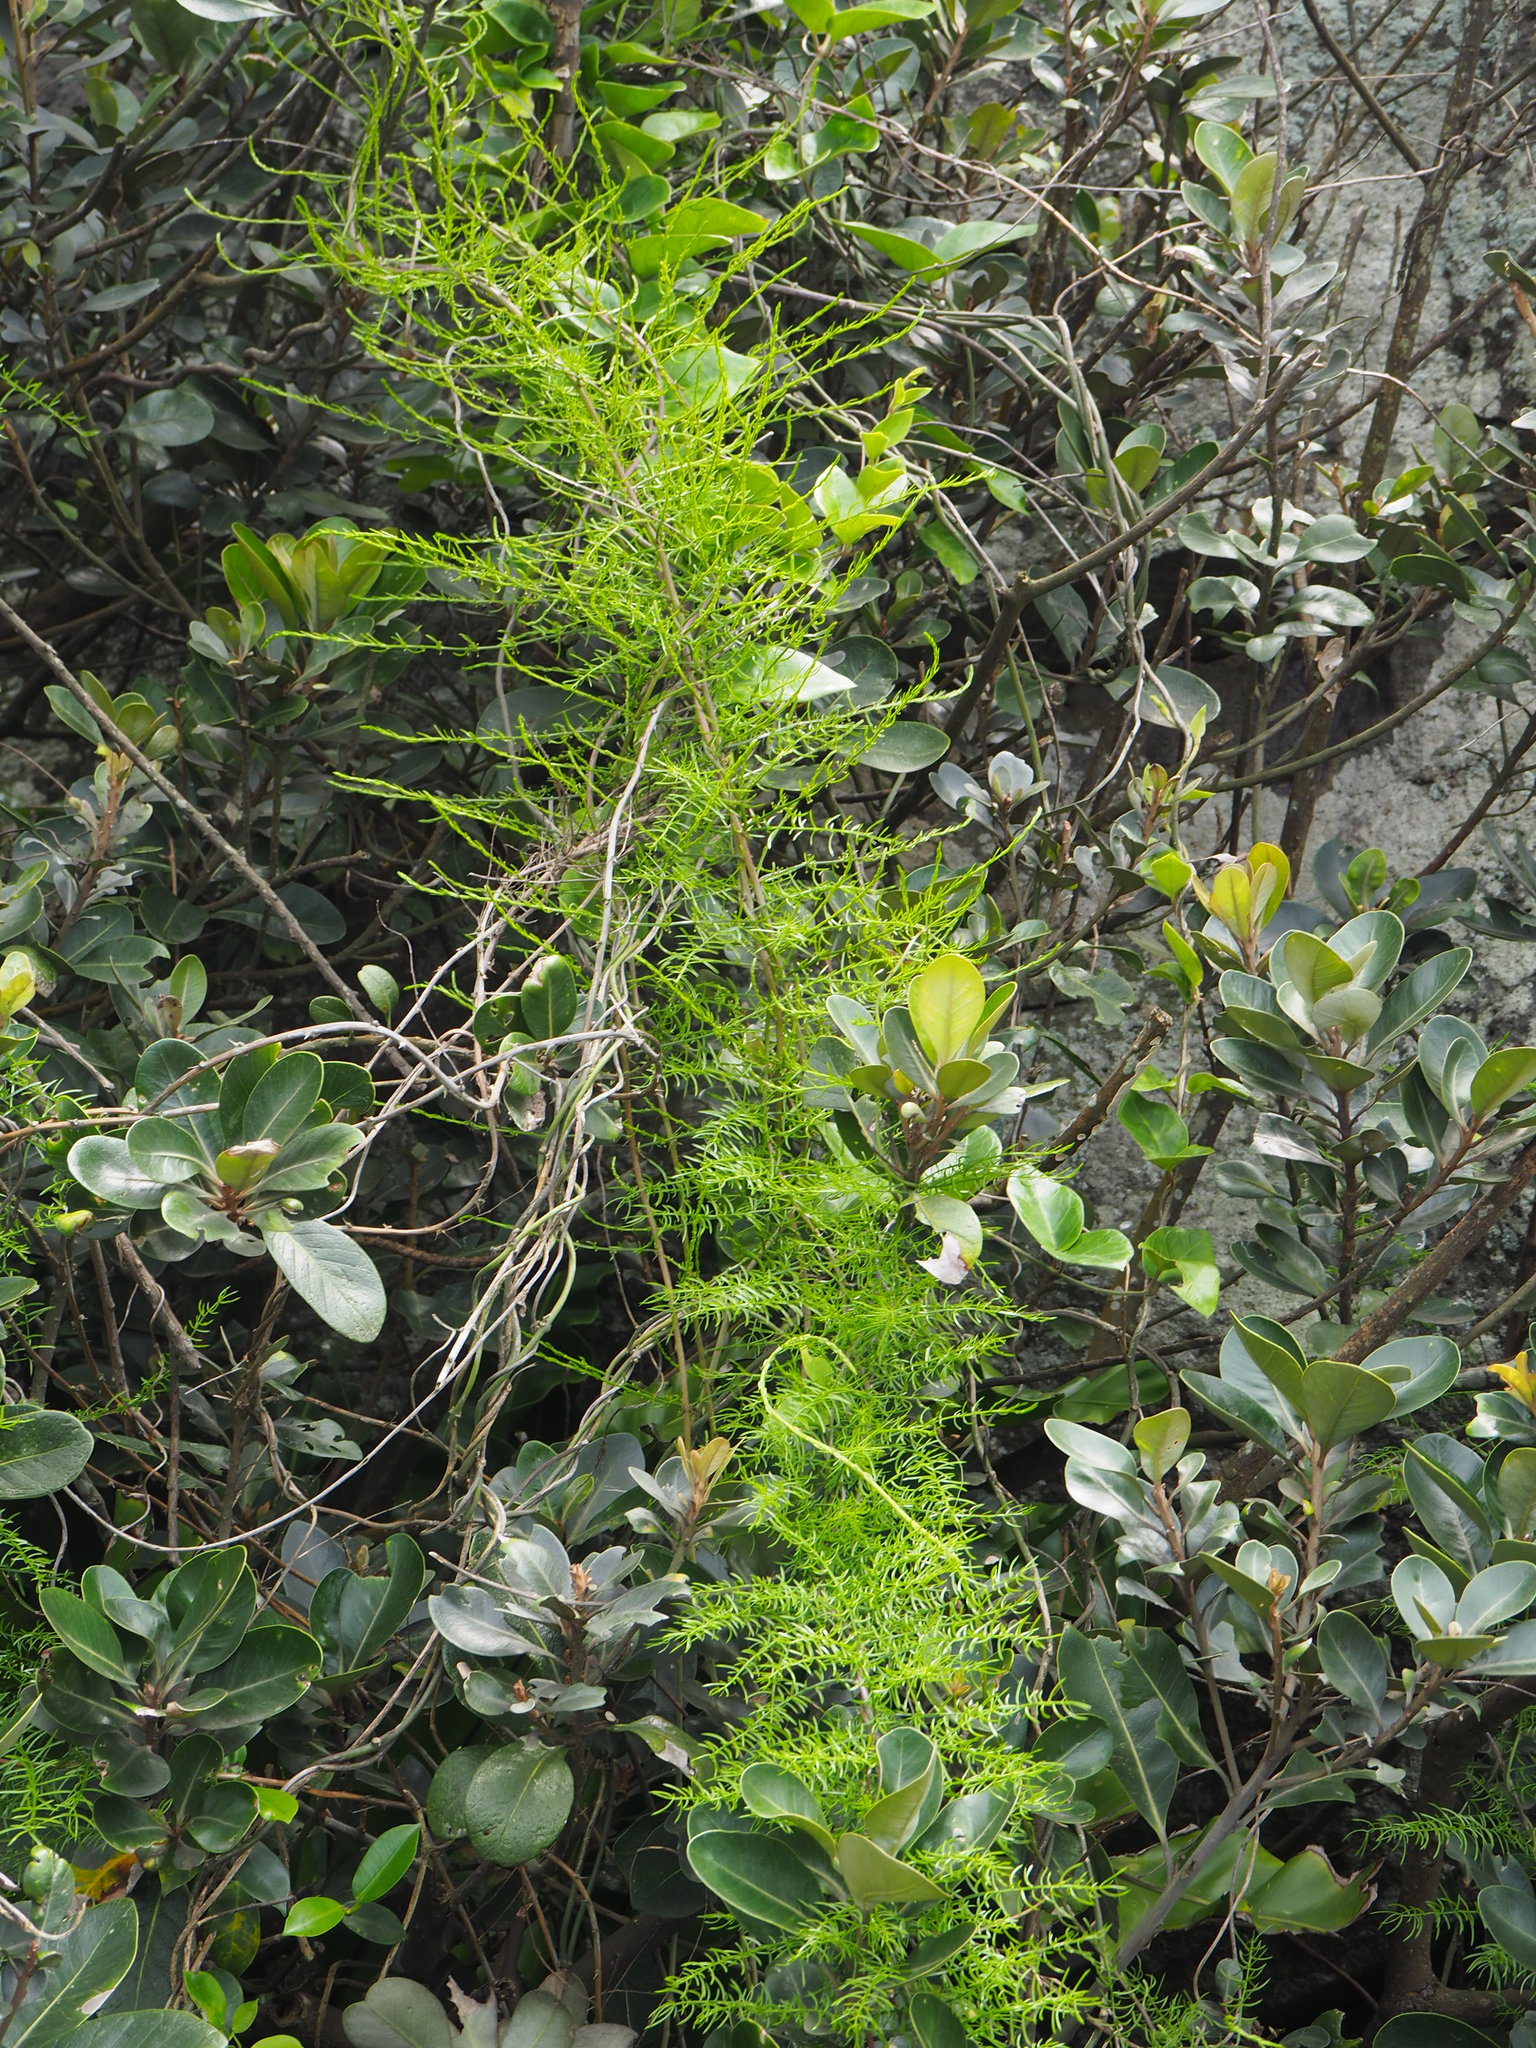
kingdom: Plantae
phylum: Tracheophyta
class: Liliopsida
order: Asparagales
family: Asparagaceae
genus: Asparagus
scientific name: Asparagus cochinchinensis
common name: Chinese asparagus
